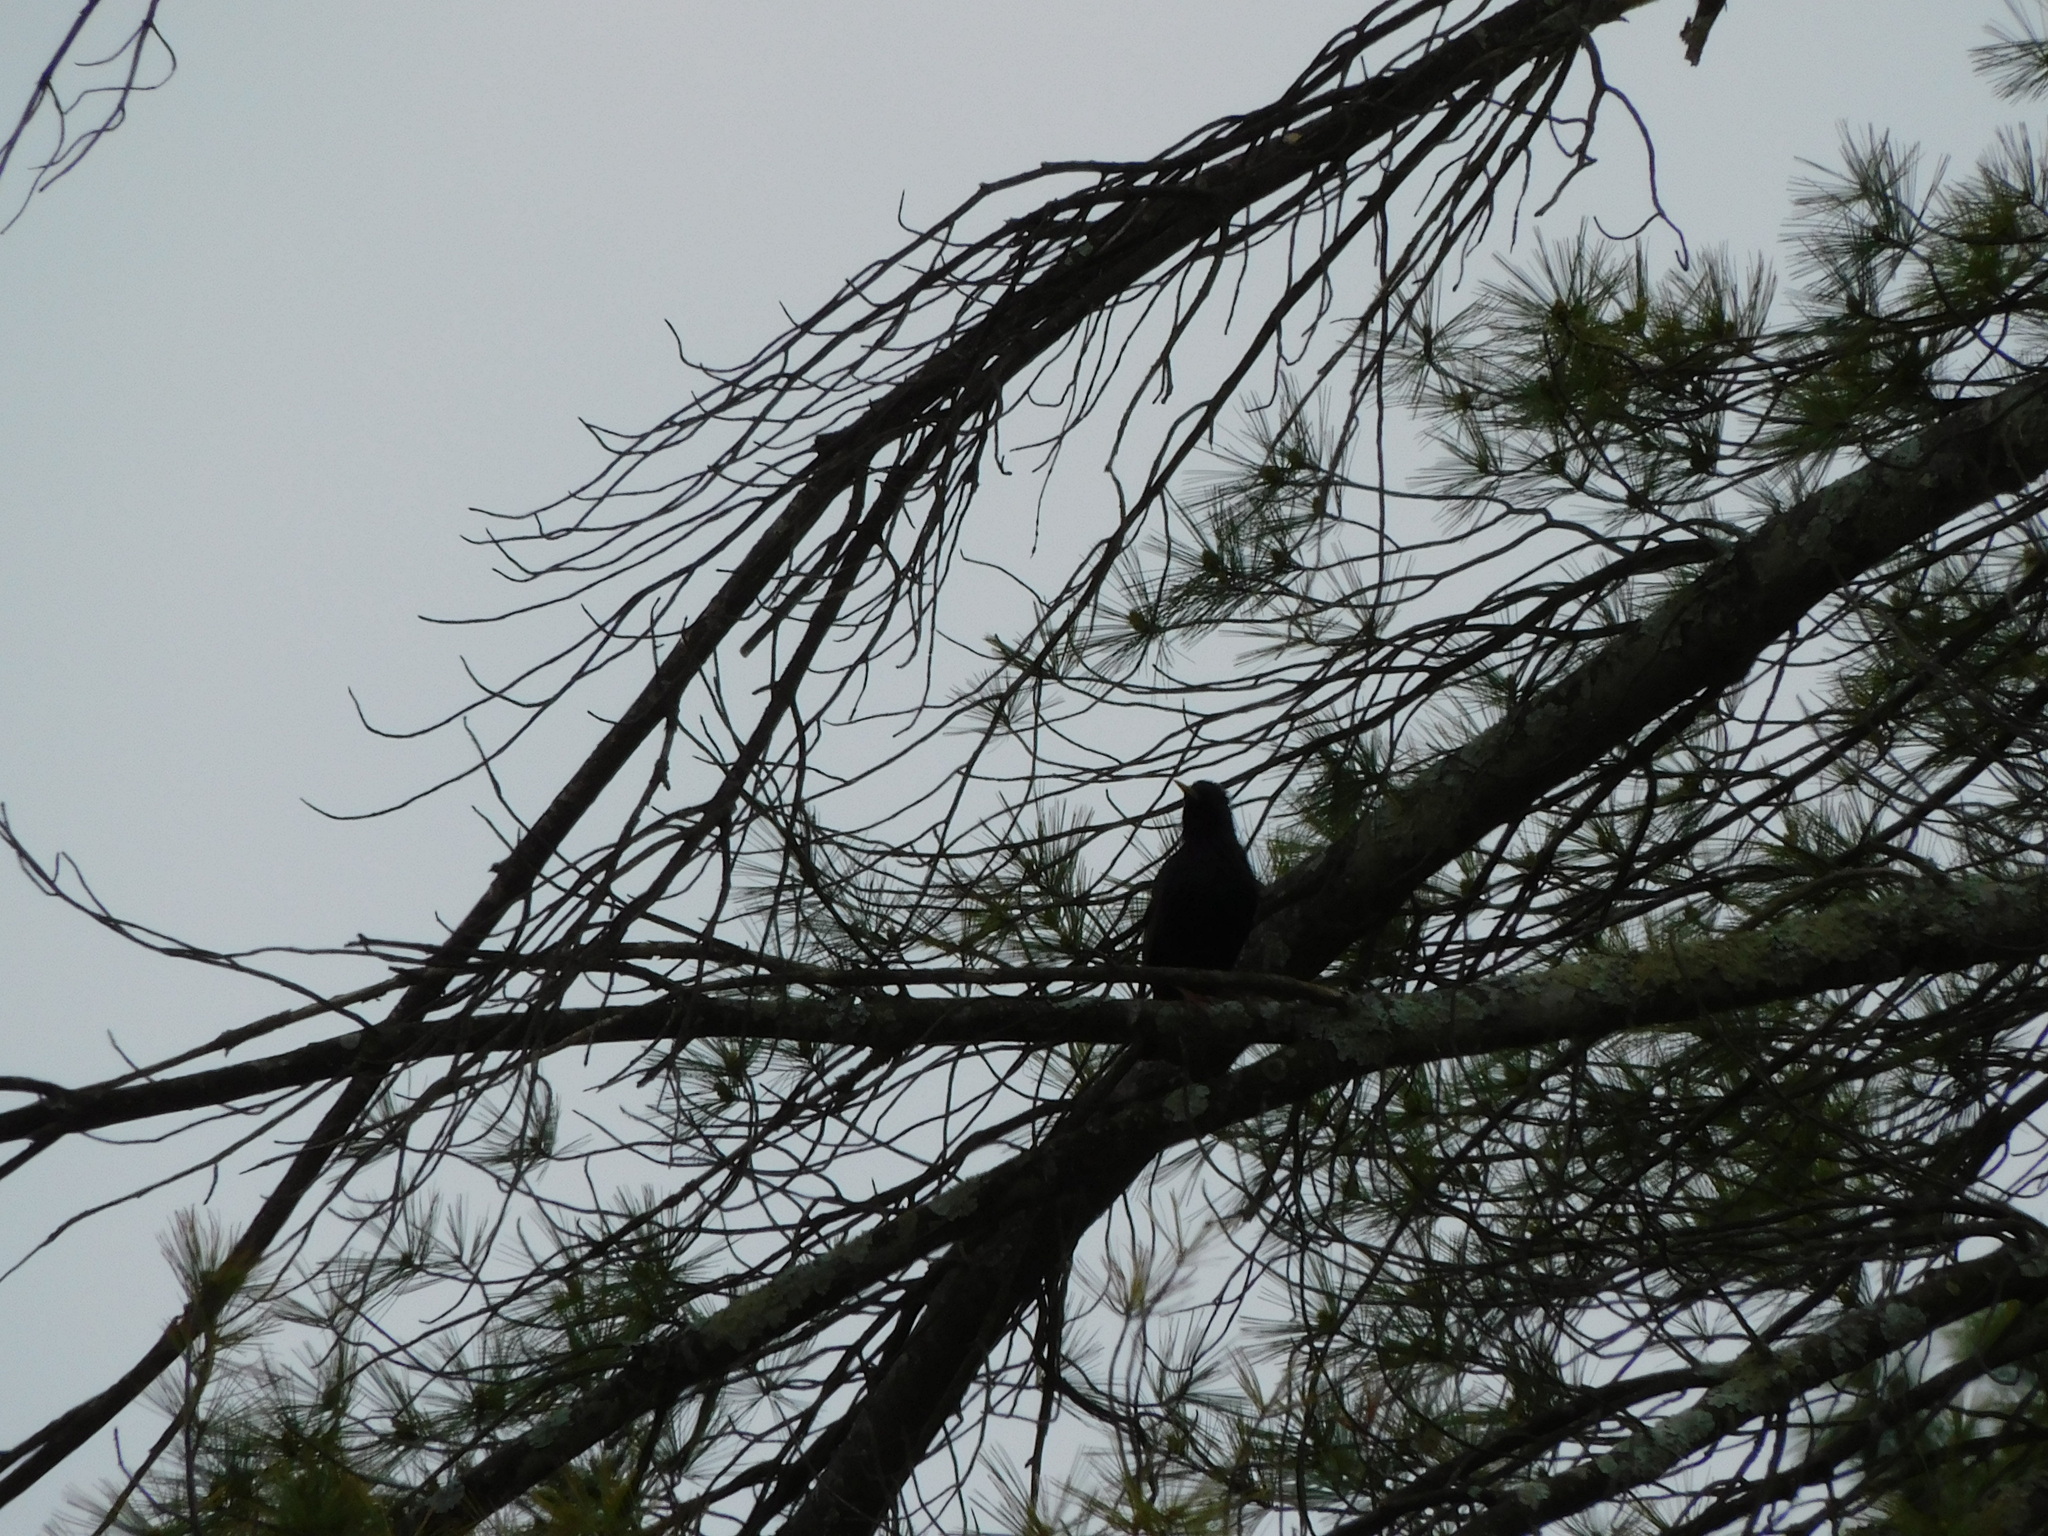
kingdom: Animalia
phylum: Chordata
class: Aves
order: Passeriformes
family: Sturnidae
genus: Sturnus
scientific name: Sturnus vulgaris
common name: Common starling
